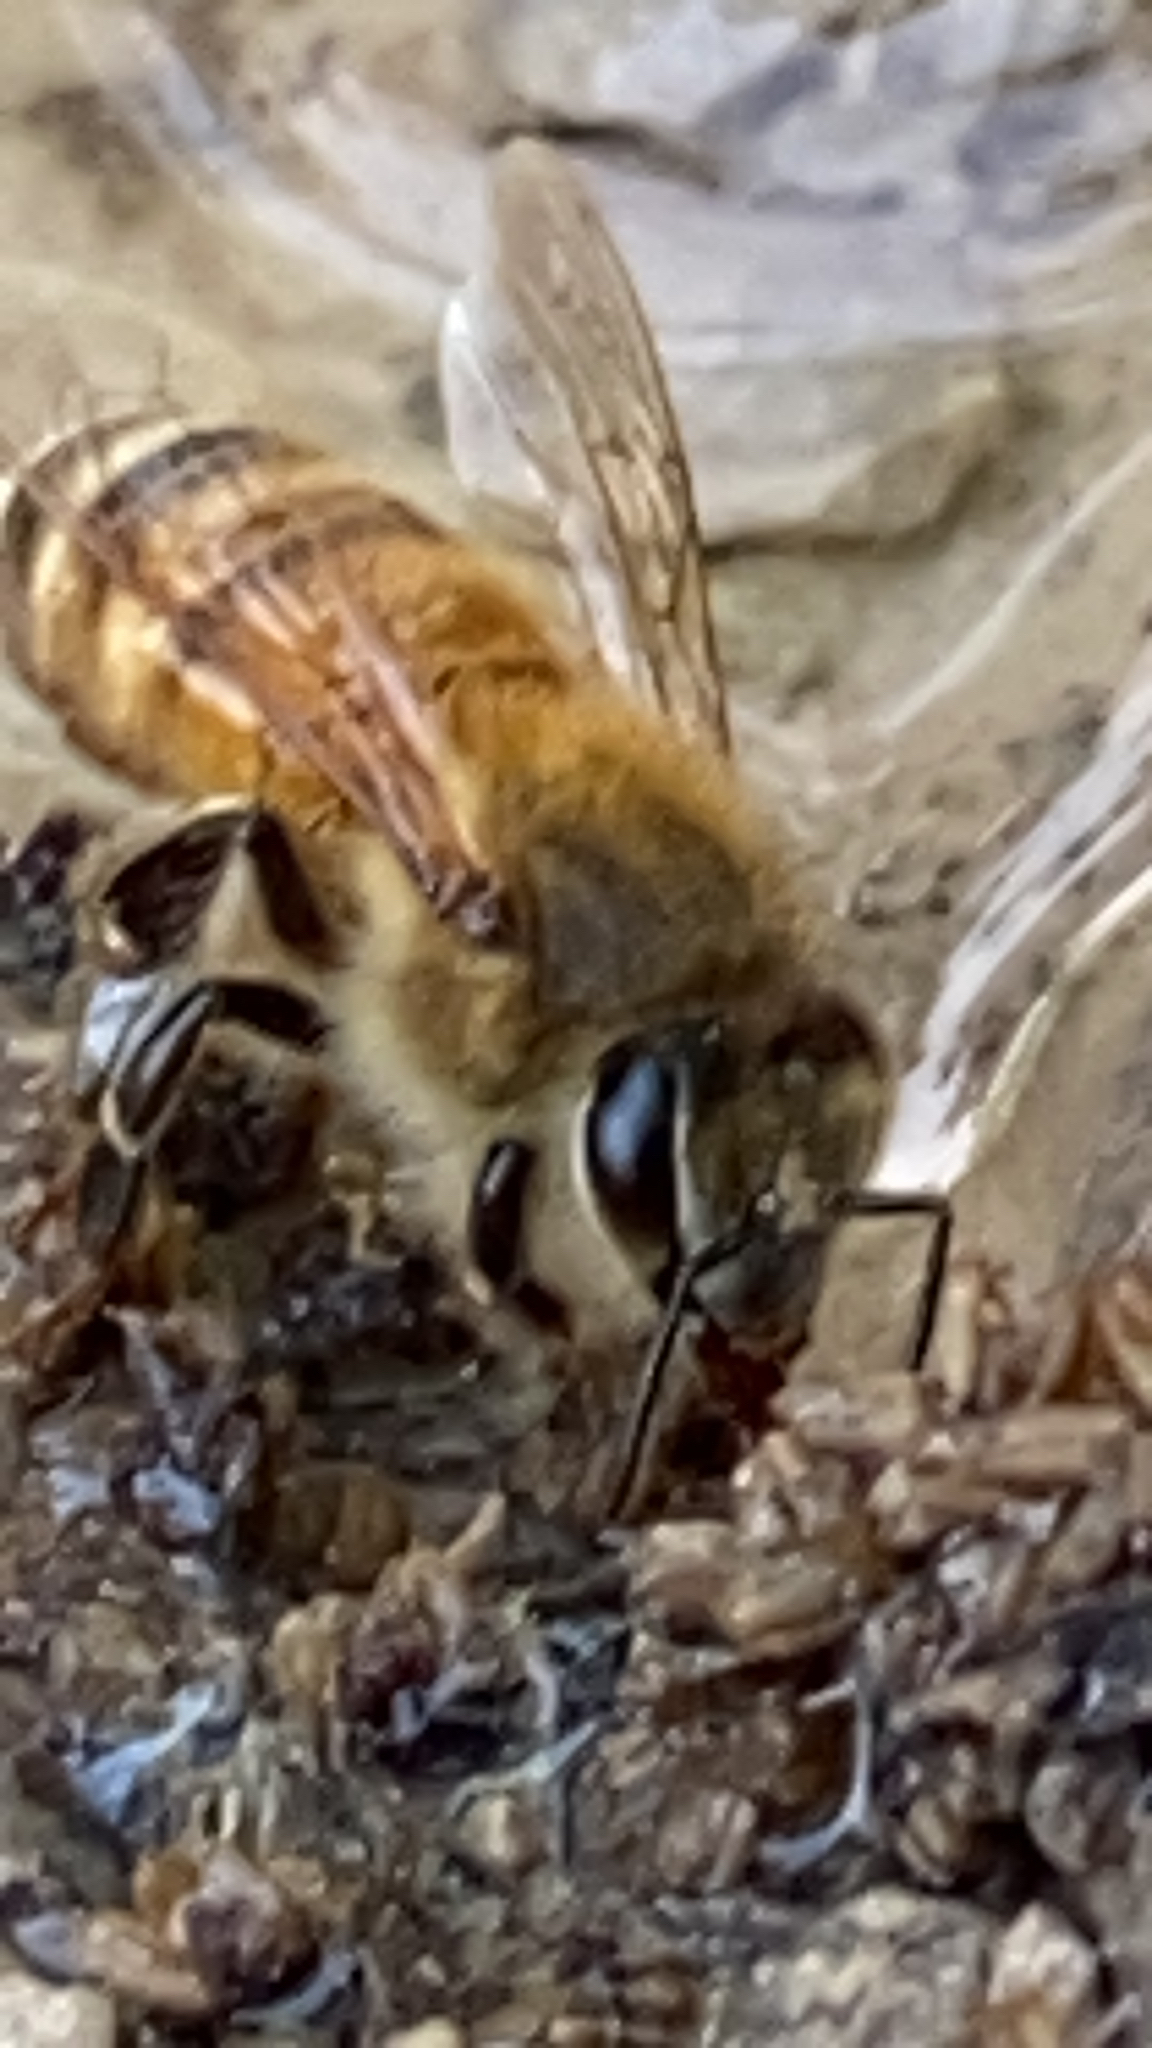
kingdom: Animalia
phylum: Arthropoda
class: Insecta
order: Hymenoptera
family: Apidae
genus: Apis
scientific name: Apis mellifera
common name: Honey bee
